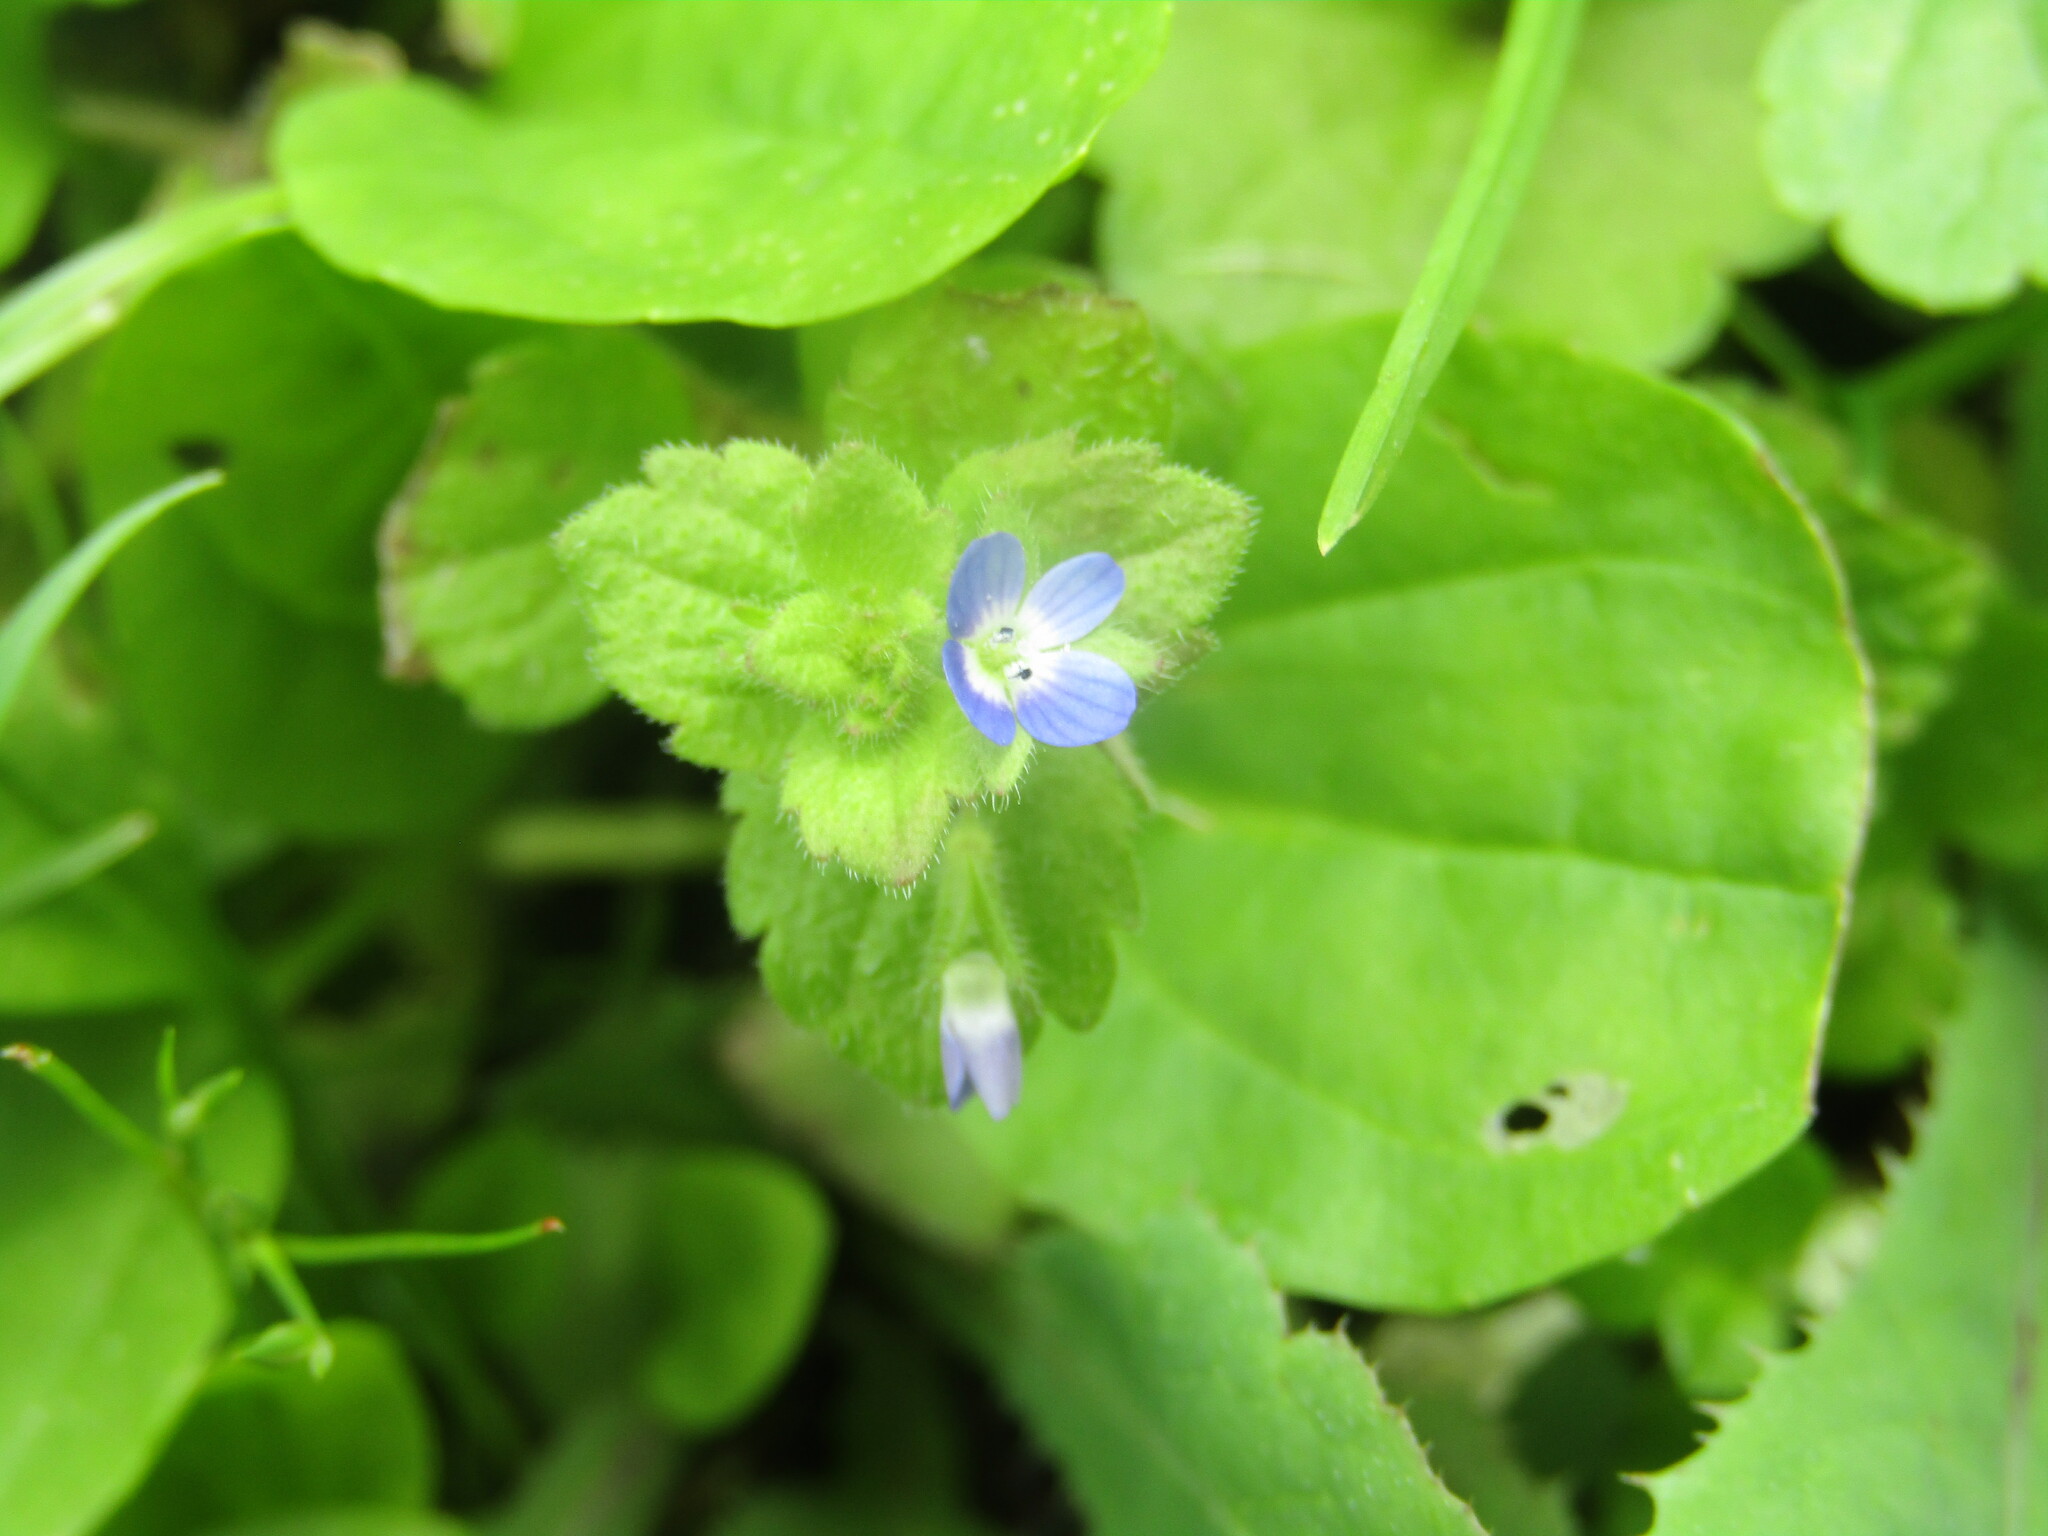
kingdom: Plantae
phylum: Tracheophyta
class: Magnoliopsida
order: Lamiales
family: Plantaginaceae
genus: Veronica
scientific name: Veronica opaca
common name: Dark speedwell
